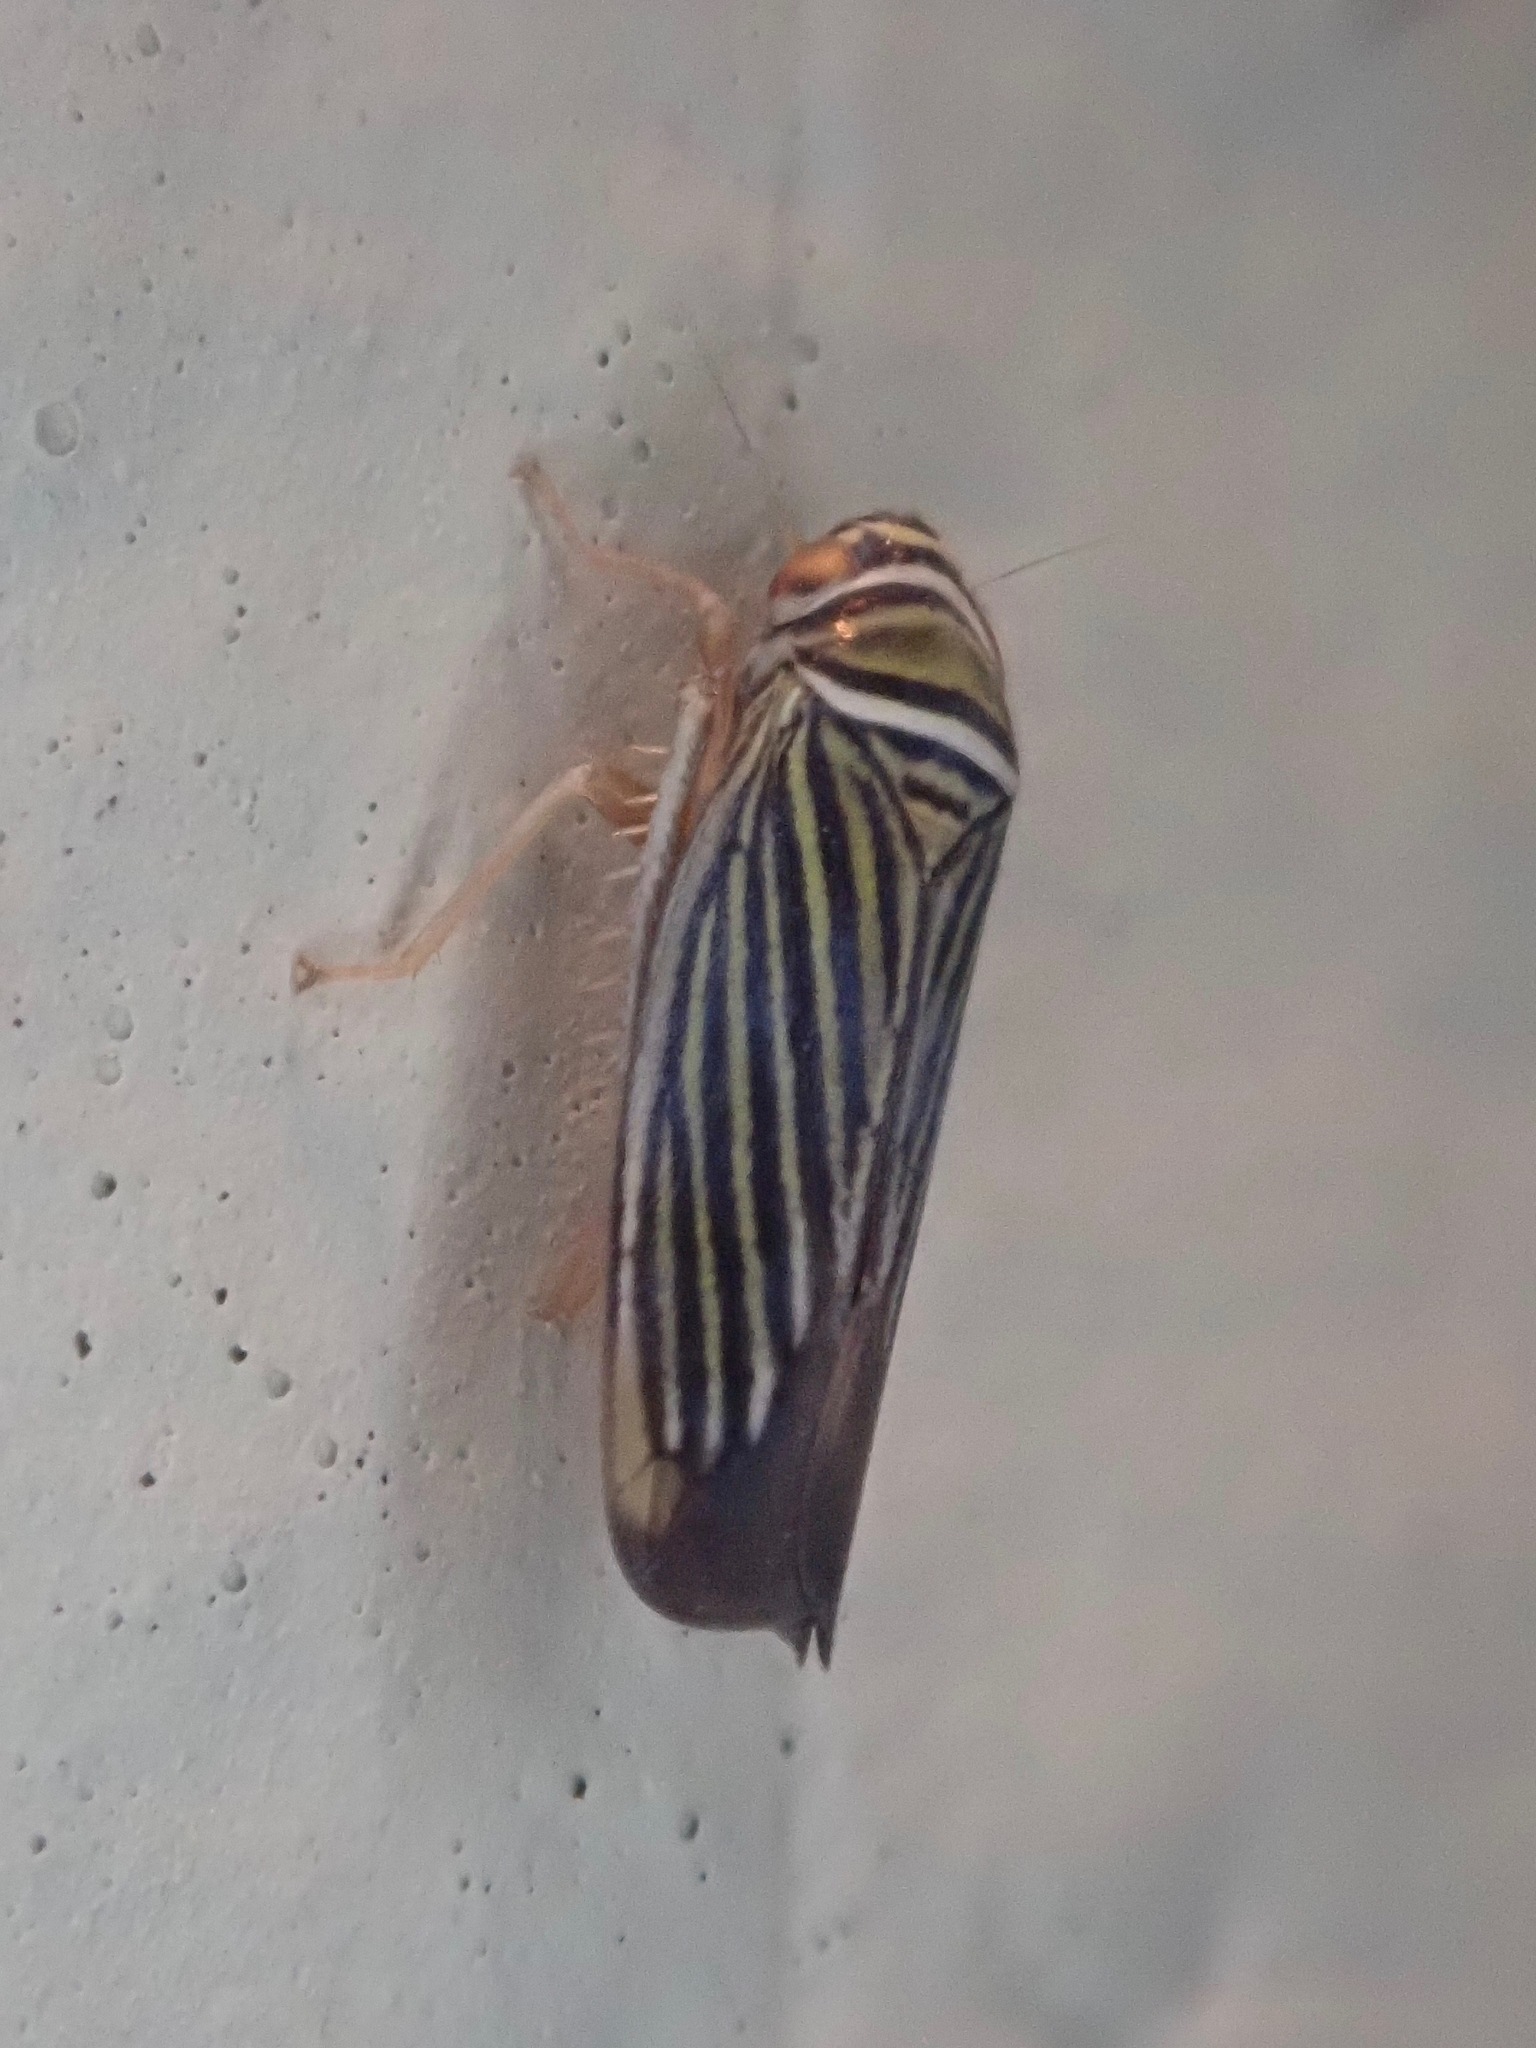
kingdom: Animalia
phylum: Arthropoda
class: Insecta
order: Hemiptera
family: Cicadellidae
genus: Tylozygus
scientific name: Tylozygus bifidus
